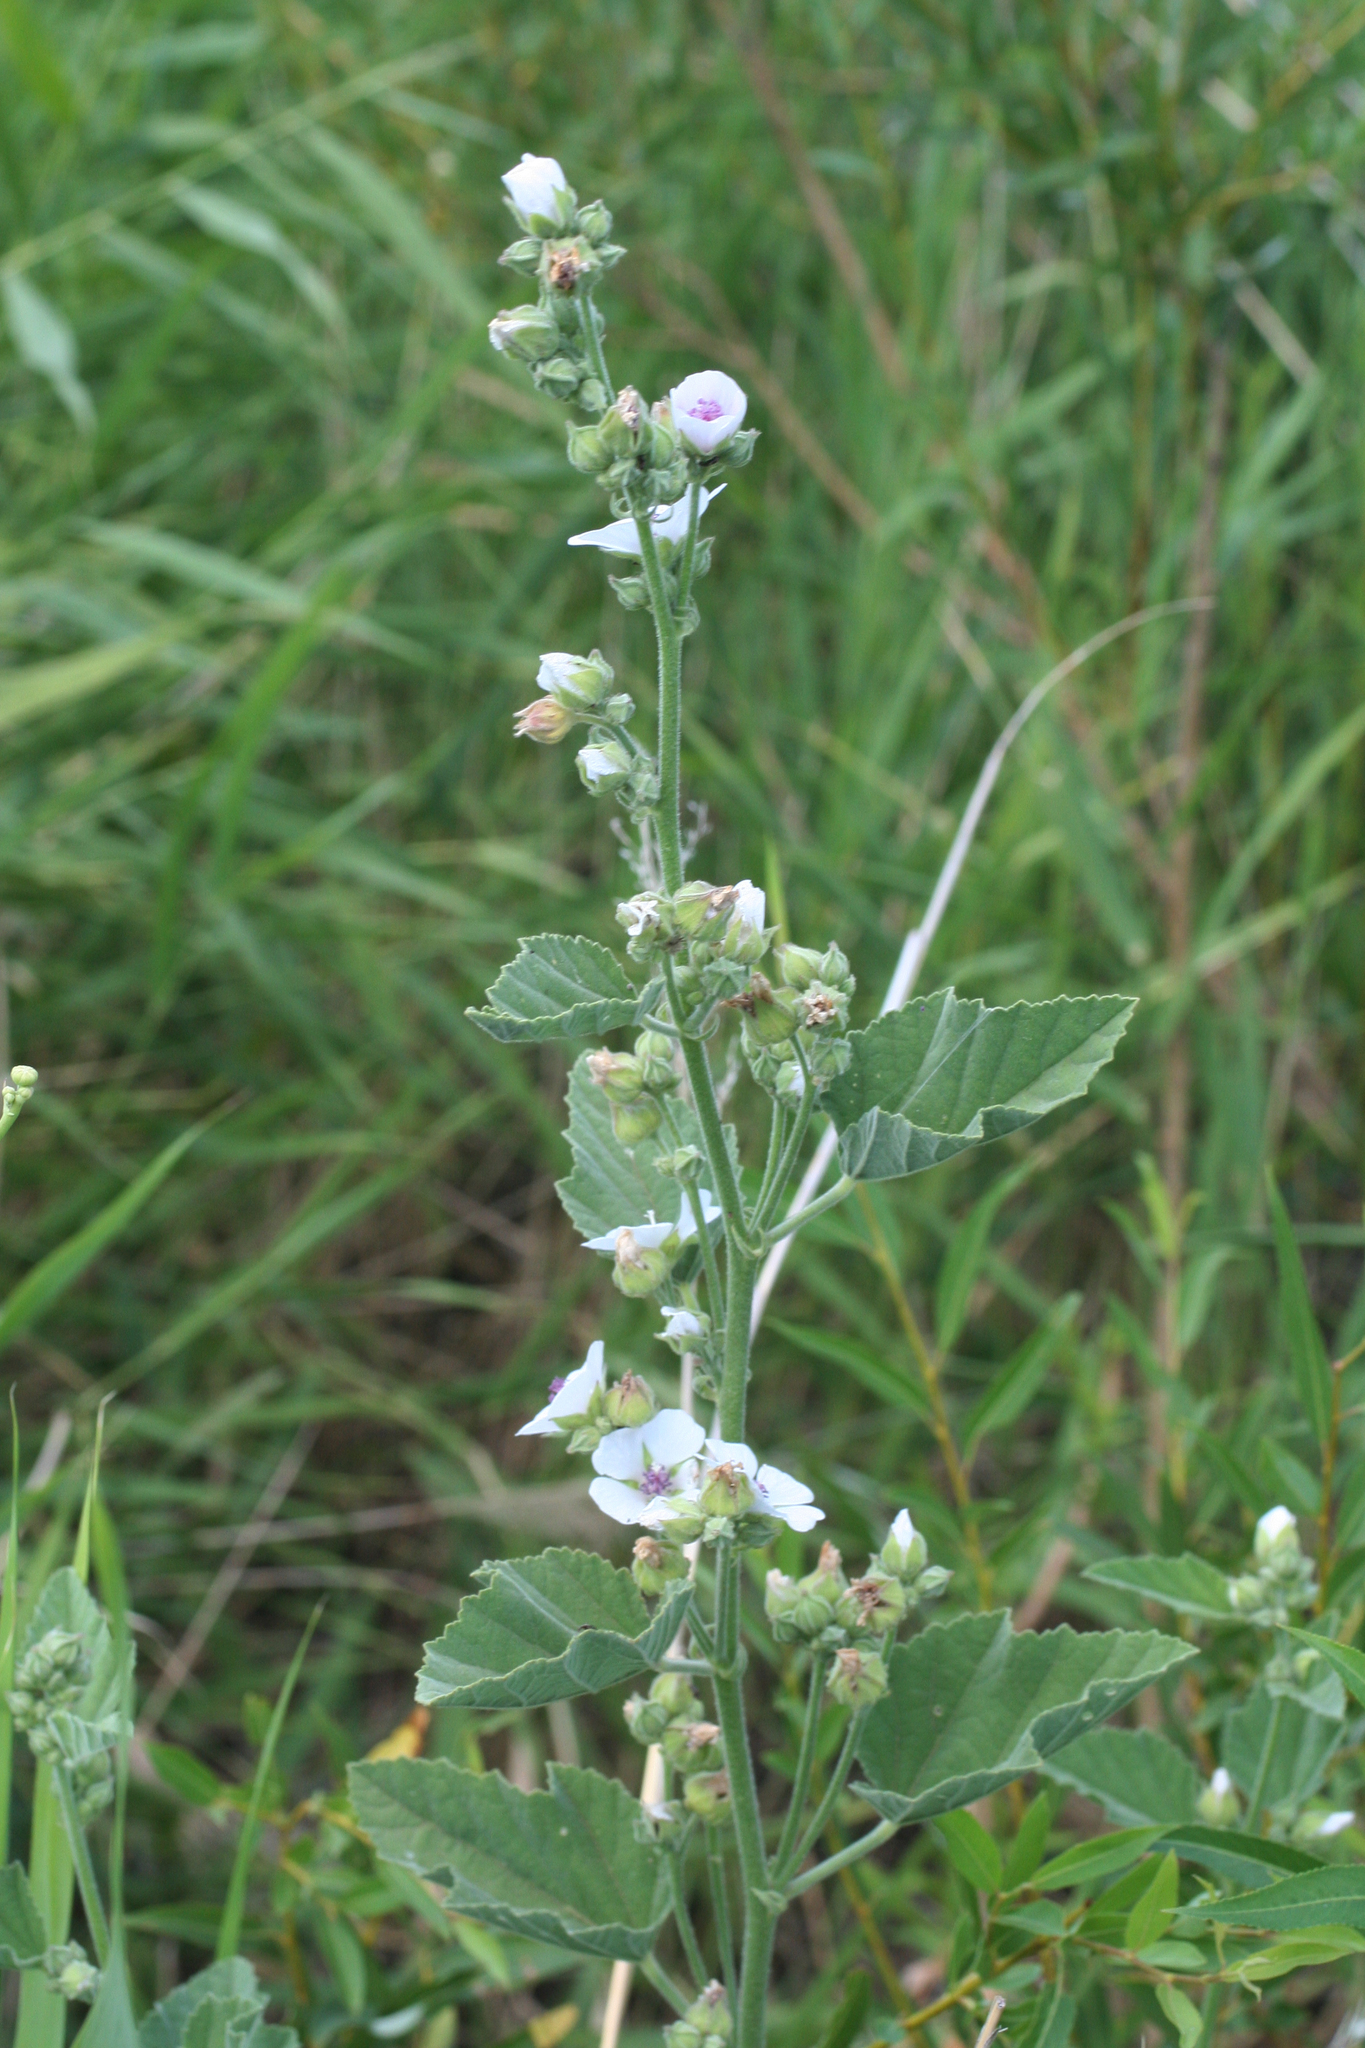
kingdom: Plantae
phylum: Tracheophyta
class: Magnoliopsida
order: Malvales
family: Malvaceae
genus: Althaea
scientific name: Althaea officinalis
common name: Marsh-mallow
